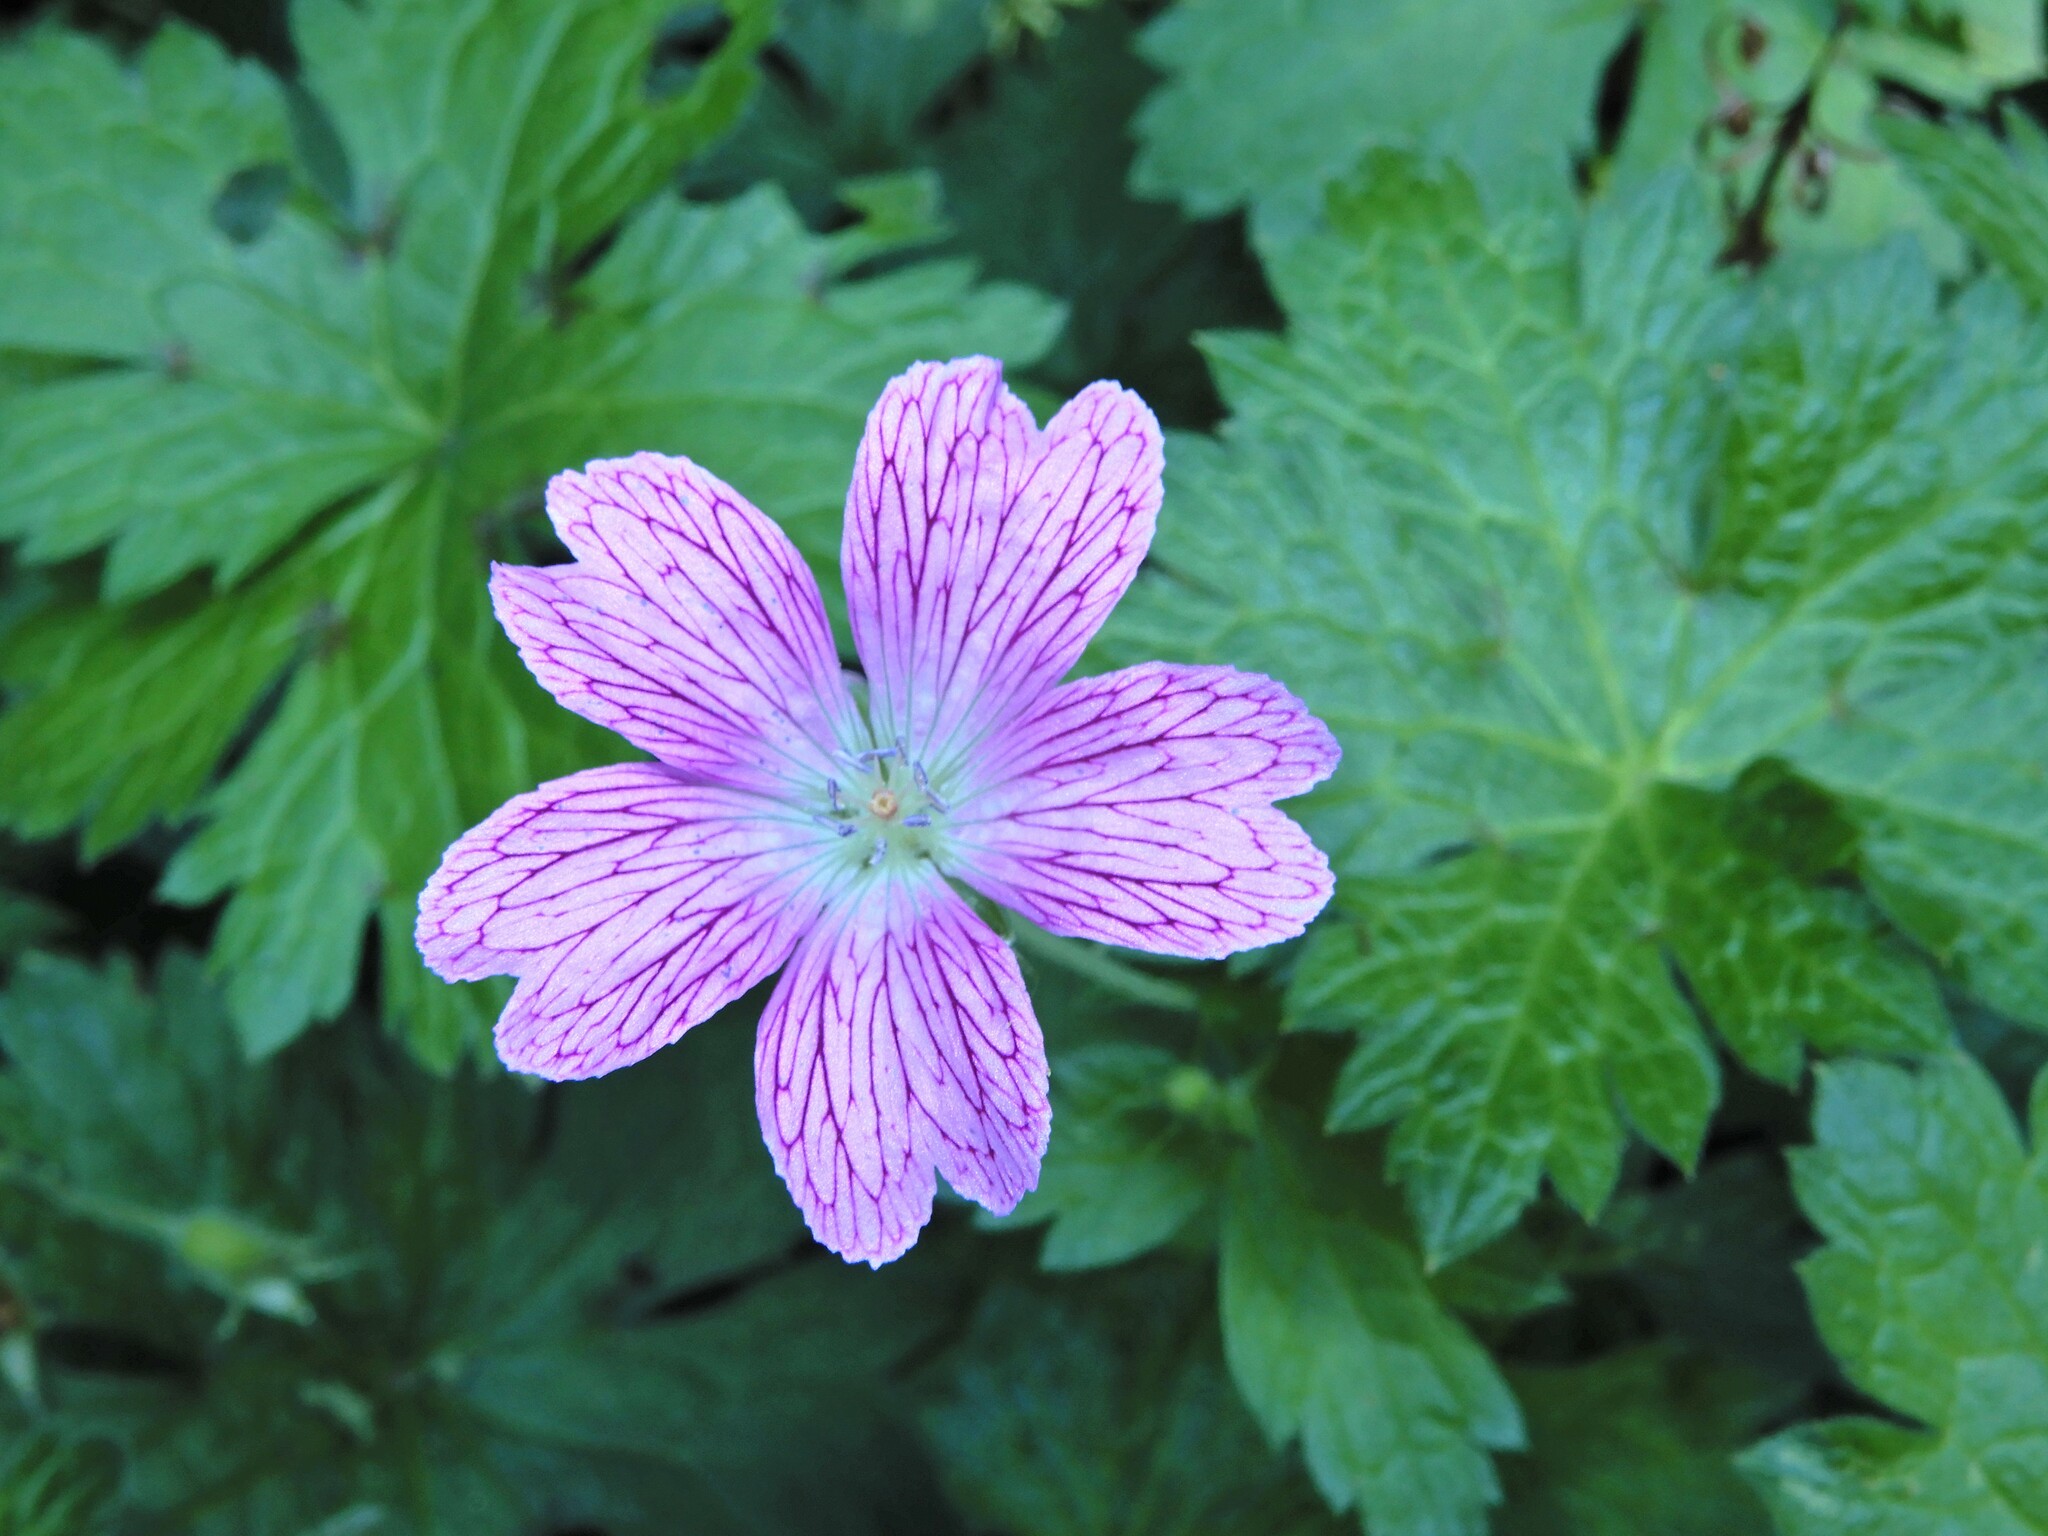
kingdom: Plantae
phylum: Tracheophyta
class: Magnoliopsida
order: Geraniales
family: Geraniaceae
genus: Geranium
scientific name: Geranium oxonianum
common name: Druce's crane's-bill
